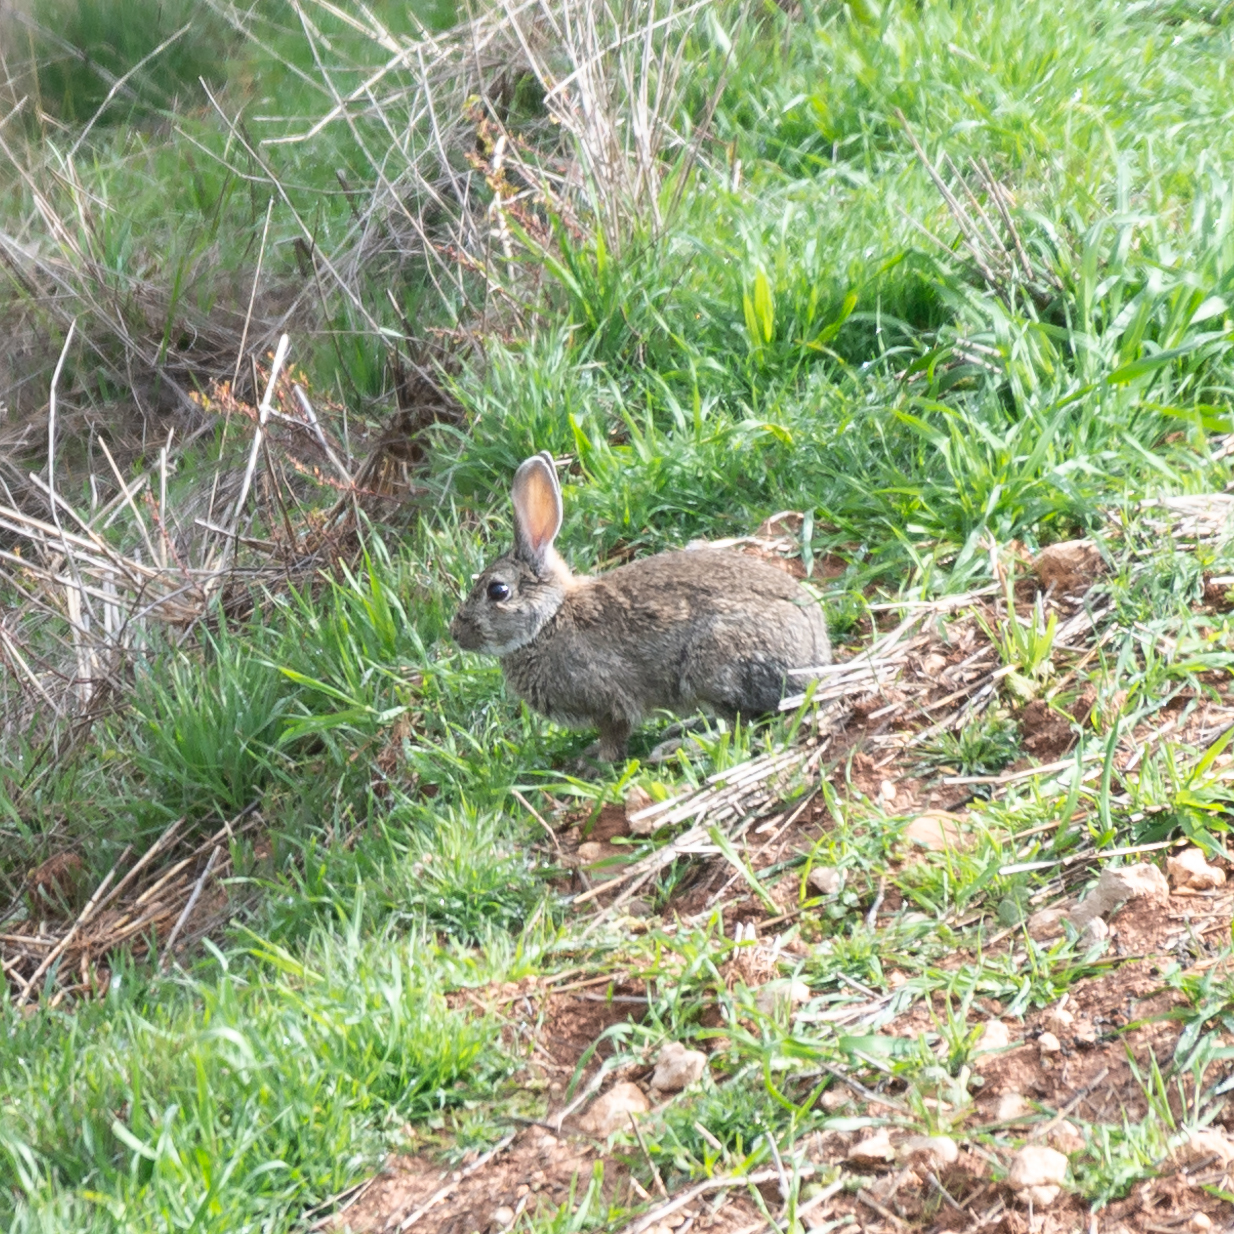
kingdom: Animalia
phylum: Chordata
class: Mammalia
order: Lagomorpha
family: Leporidae
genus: Oryctolagus
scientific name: Oryctolagus cuniculus
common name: European rabbit
